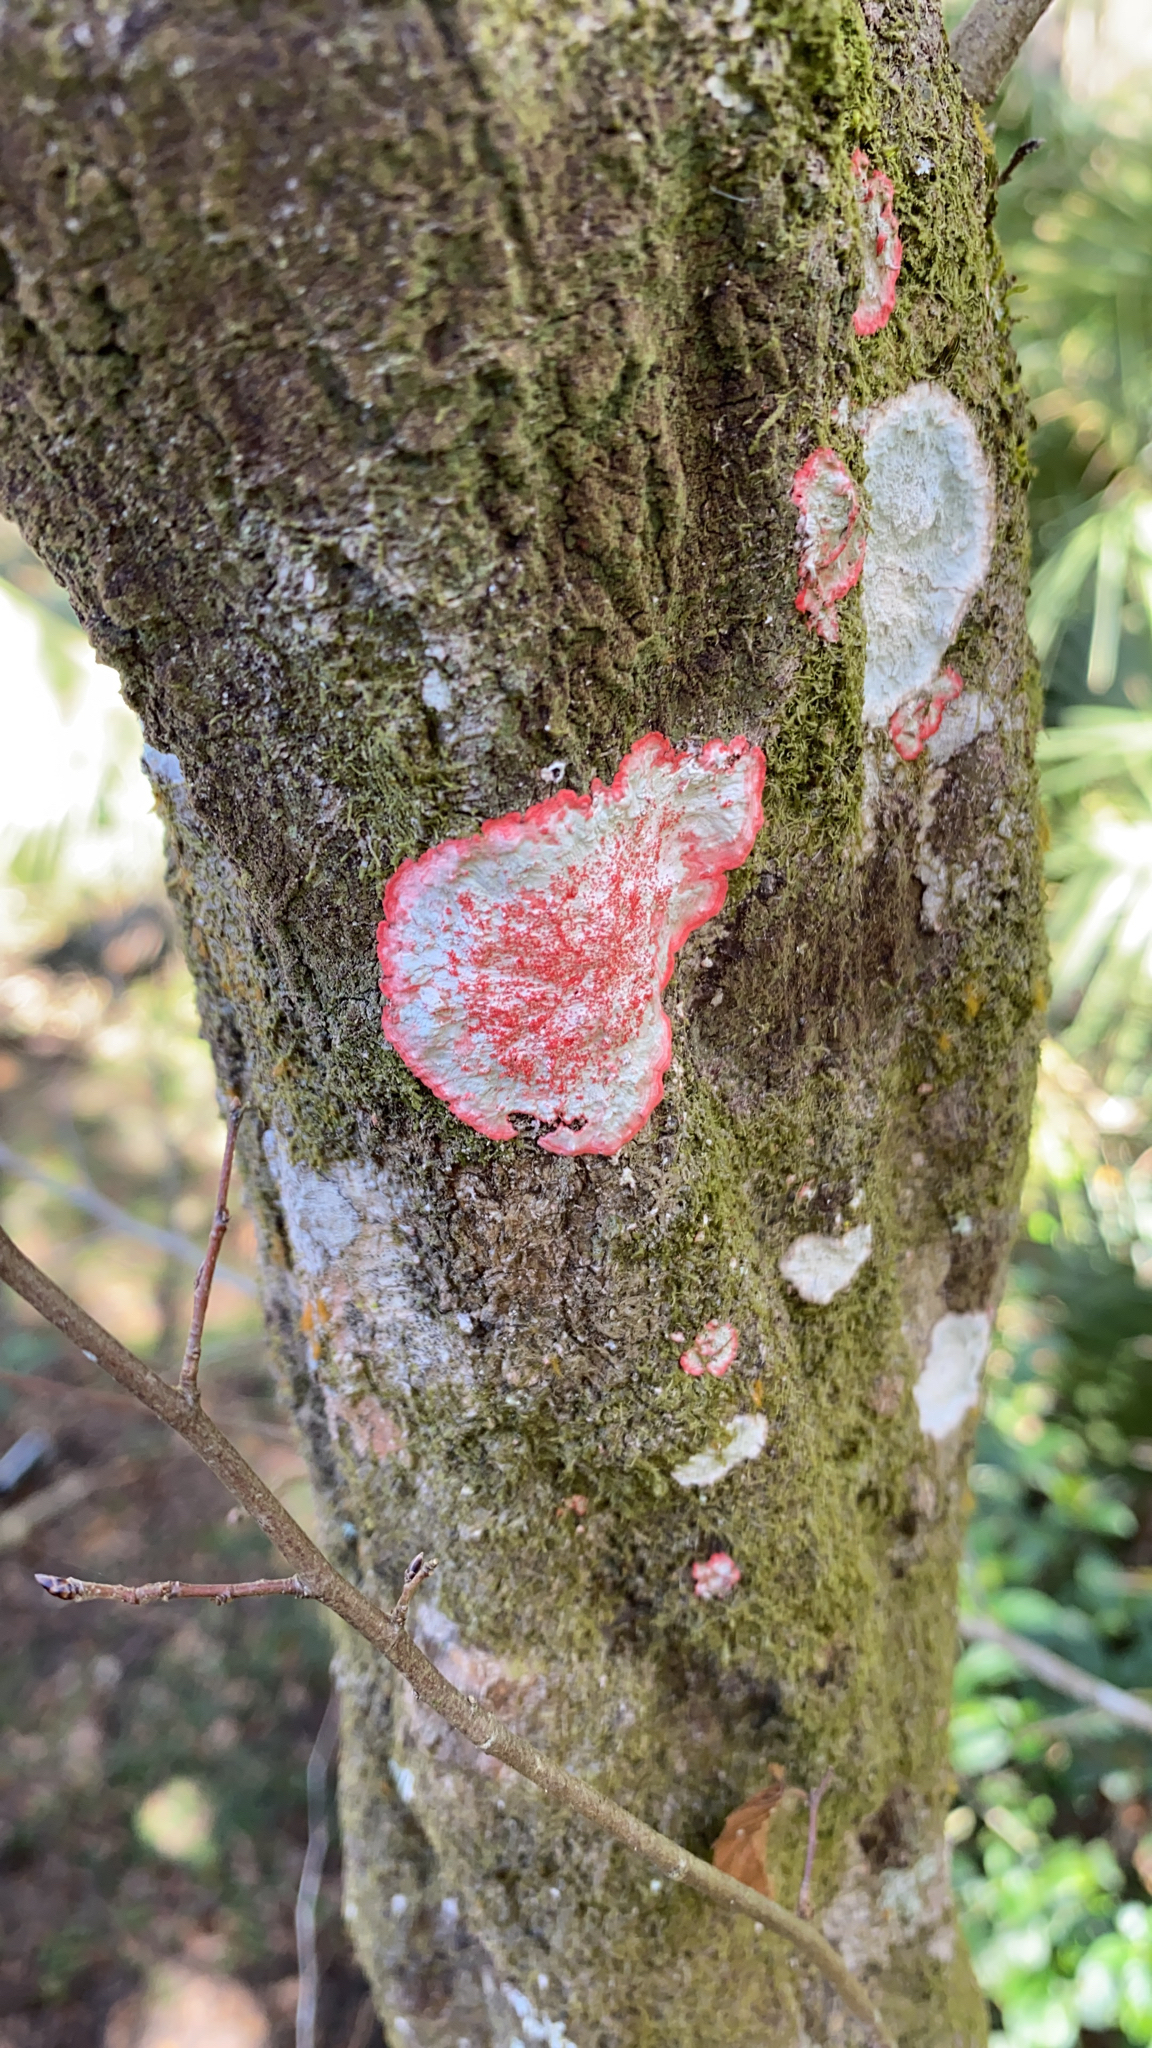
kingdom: Fungi
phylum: Ascomycota
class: Arthoniomycetes
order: Arthoniales
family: Arthoniaceae
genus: Herpothallon
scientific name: Herpothallon rubrocinctum
